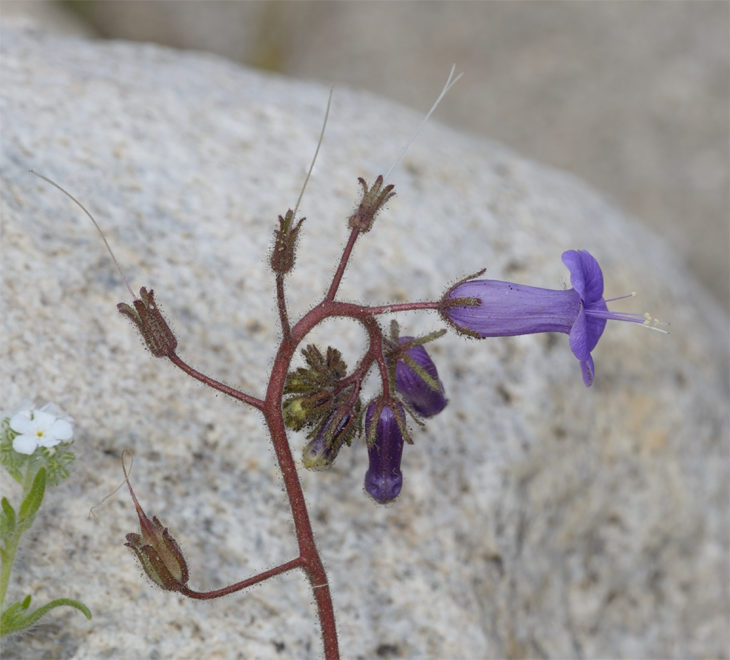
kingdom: Plantae
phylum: Tracheophyta
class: Magnoliopsida
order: Boraginales
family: Hydrophyllaceae
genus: Phacelia
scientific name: Phacelia minor
